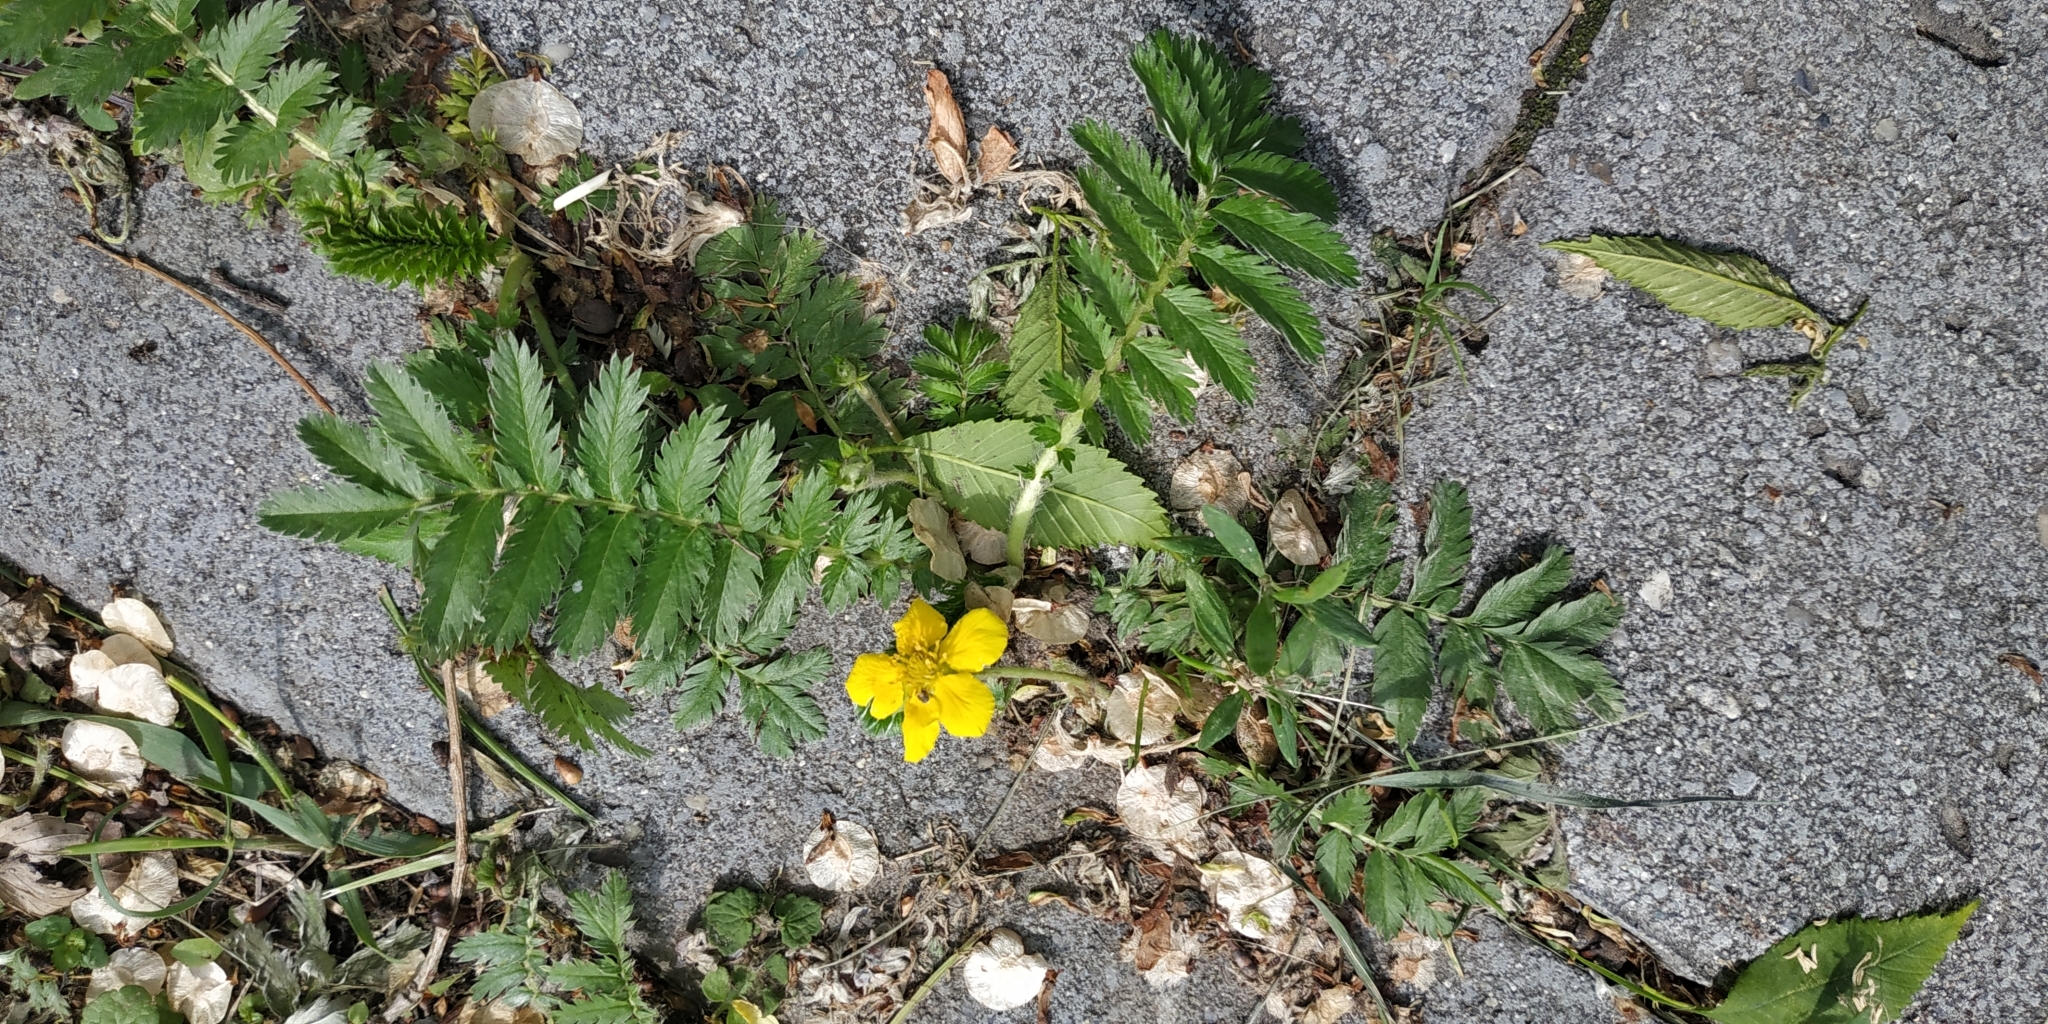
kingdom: Plantae
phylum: Tracheophyta
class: Magnoliopsida
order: Rosales
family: Rosaceae
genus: Argentina
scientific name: Argentina anserina
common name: Common silverweed
